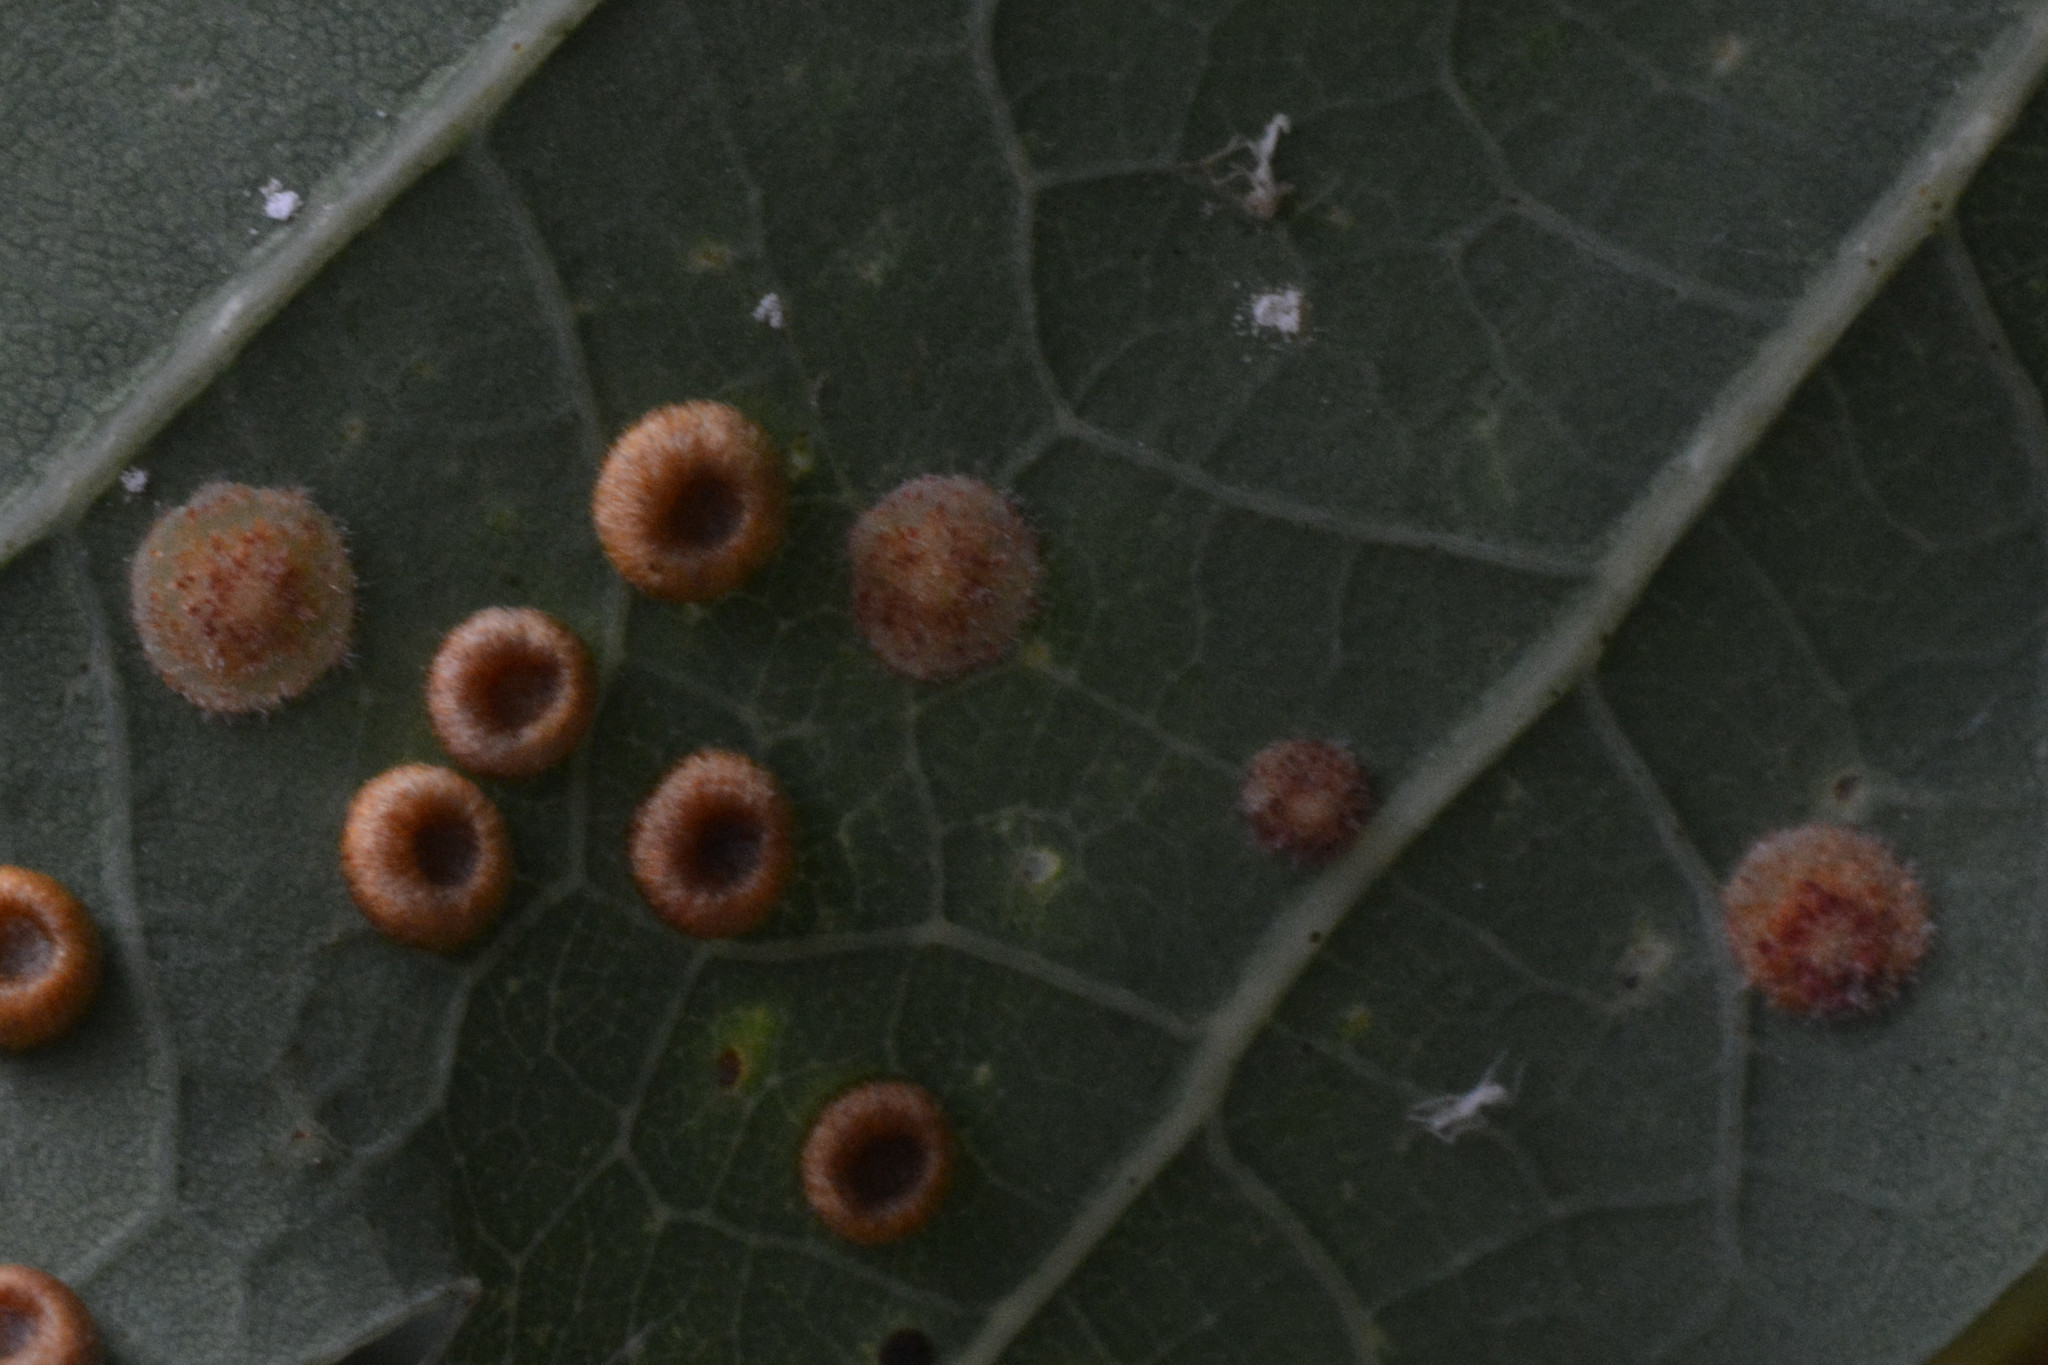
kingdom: Animalia
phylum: Arthropoda
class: Insecta
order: Hymenoptera
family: Cynipidae
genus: Neuroterus
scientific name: Neuroterus quercusbaccarum
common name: Common spangle gall
